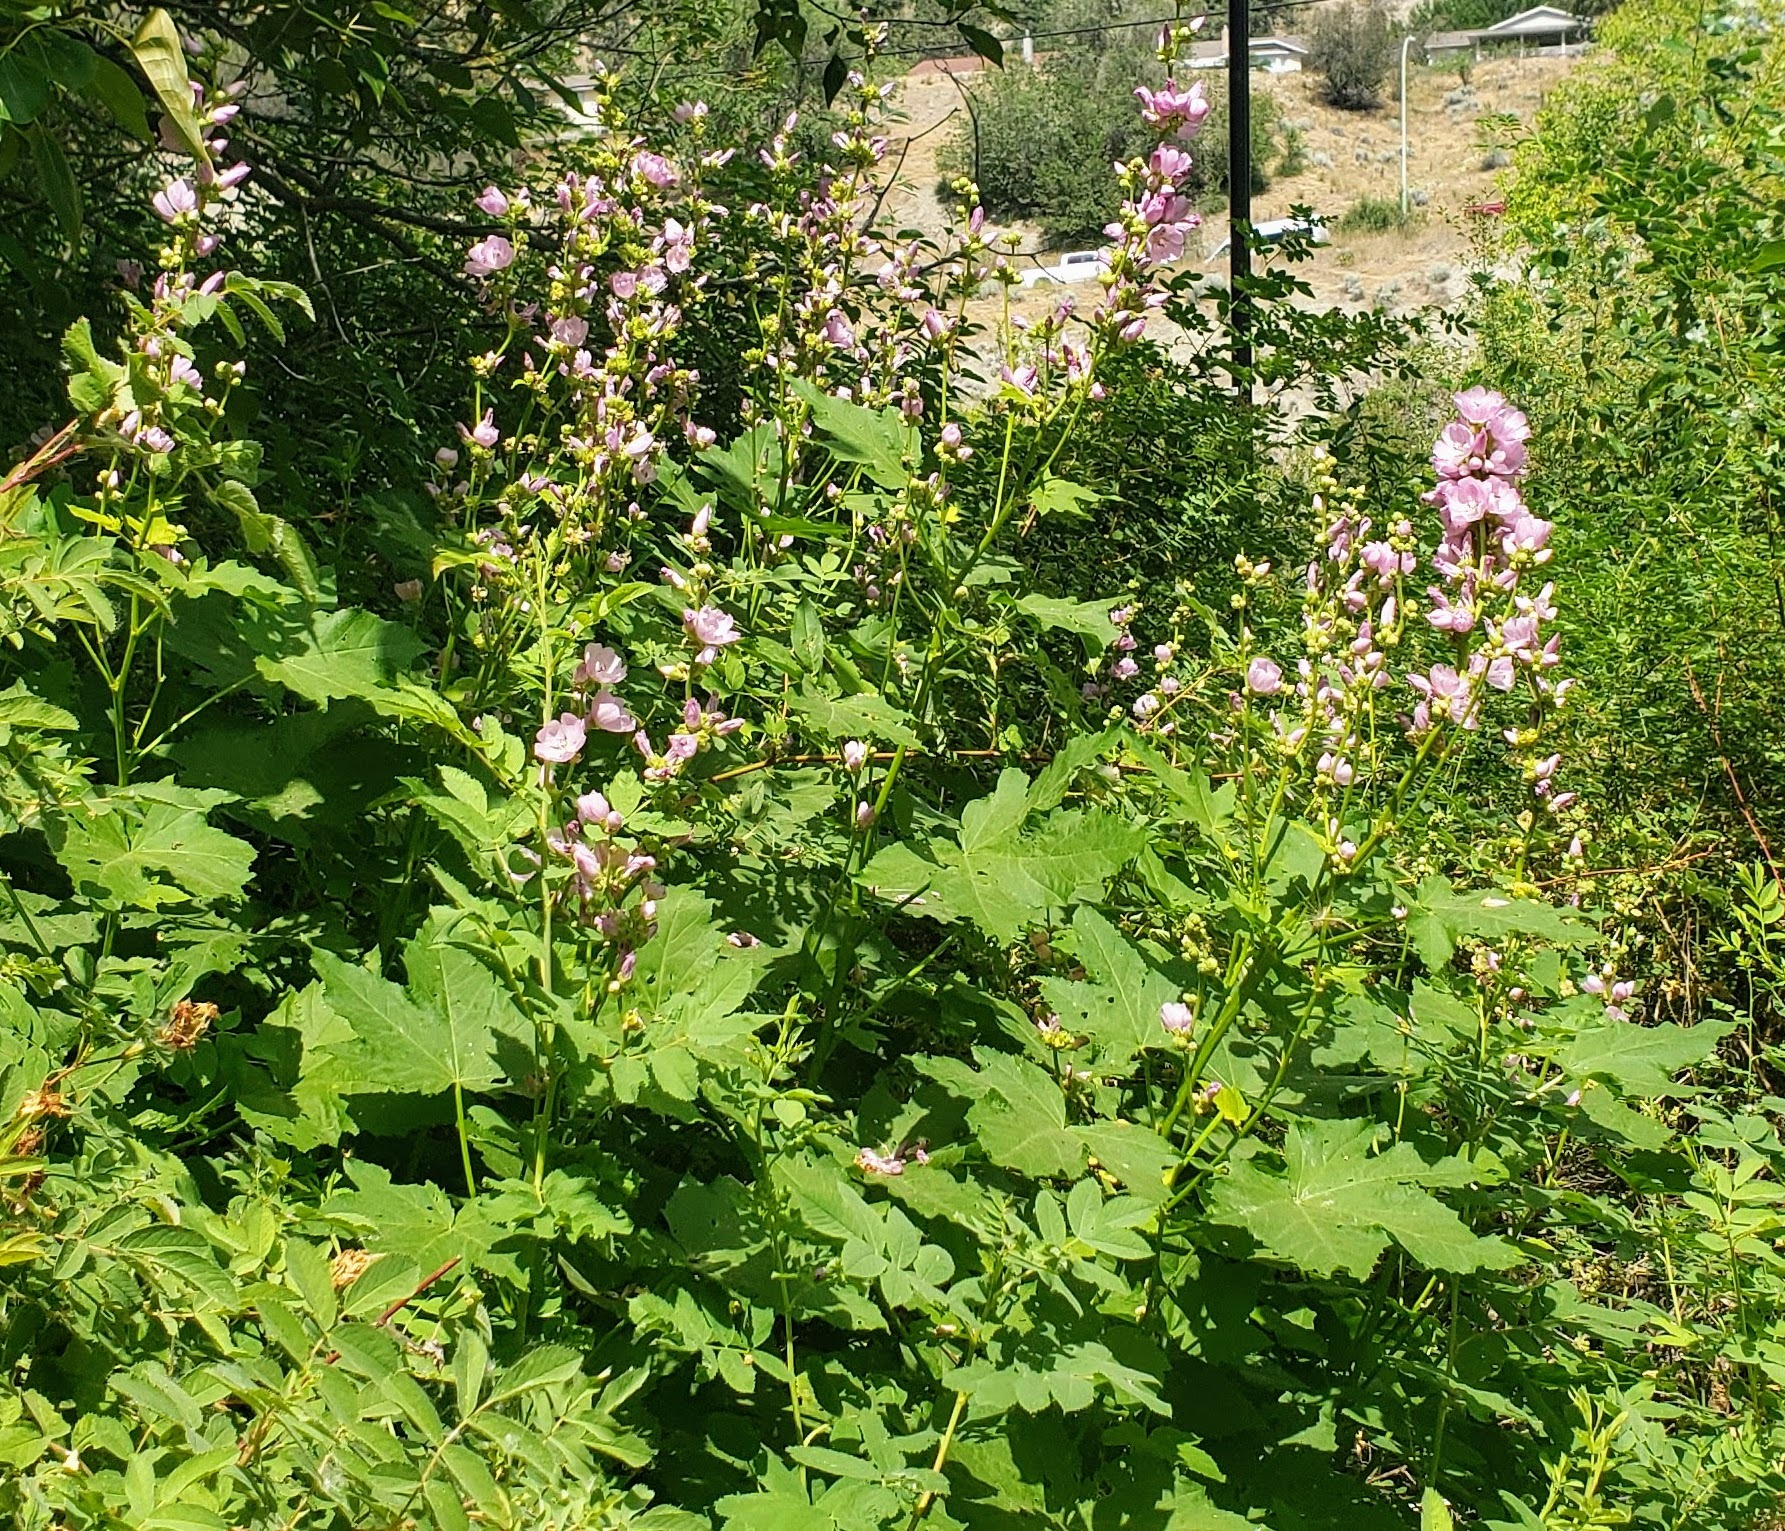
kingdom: Plantae
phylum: Tracheophyta
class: Magnoliopsida
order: Malvales
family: Malvaceae
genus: Iliamna
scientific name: Iliamna rivularis
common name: Wild hollyhock
